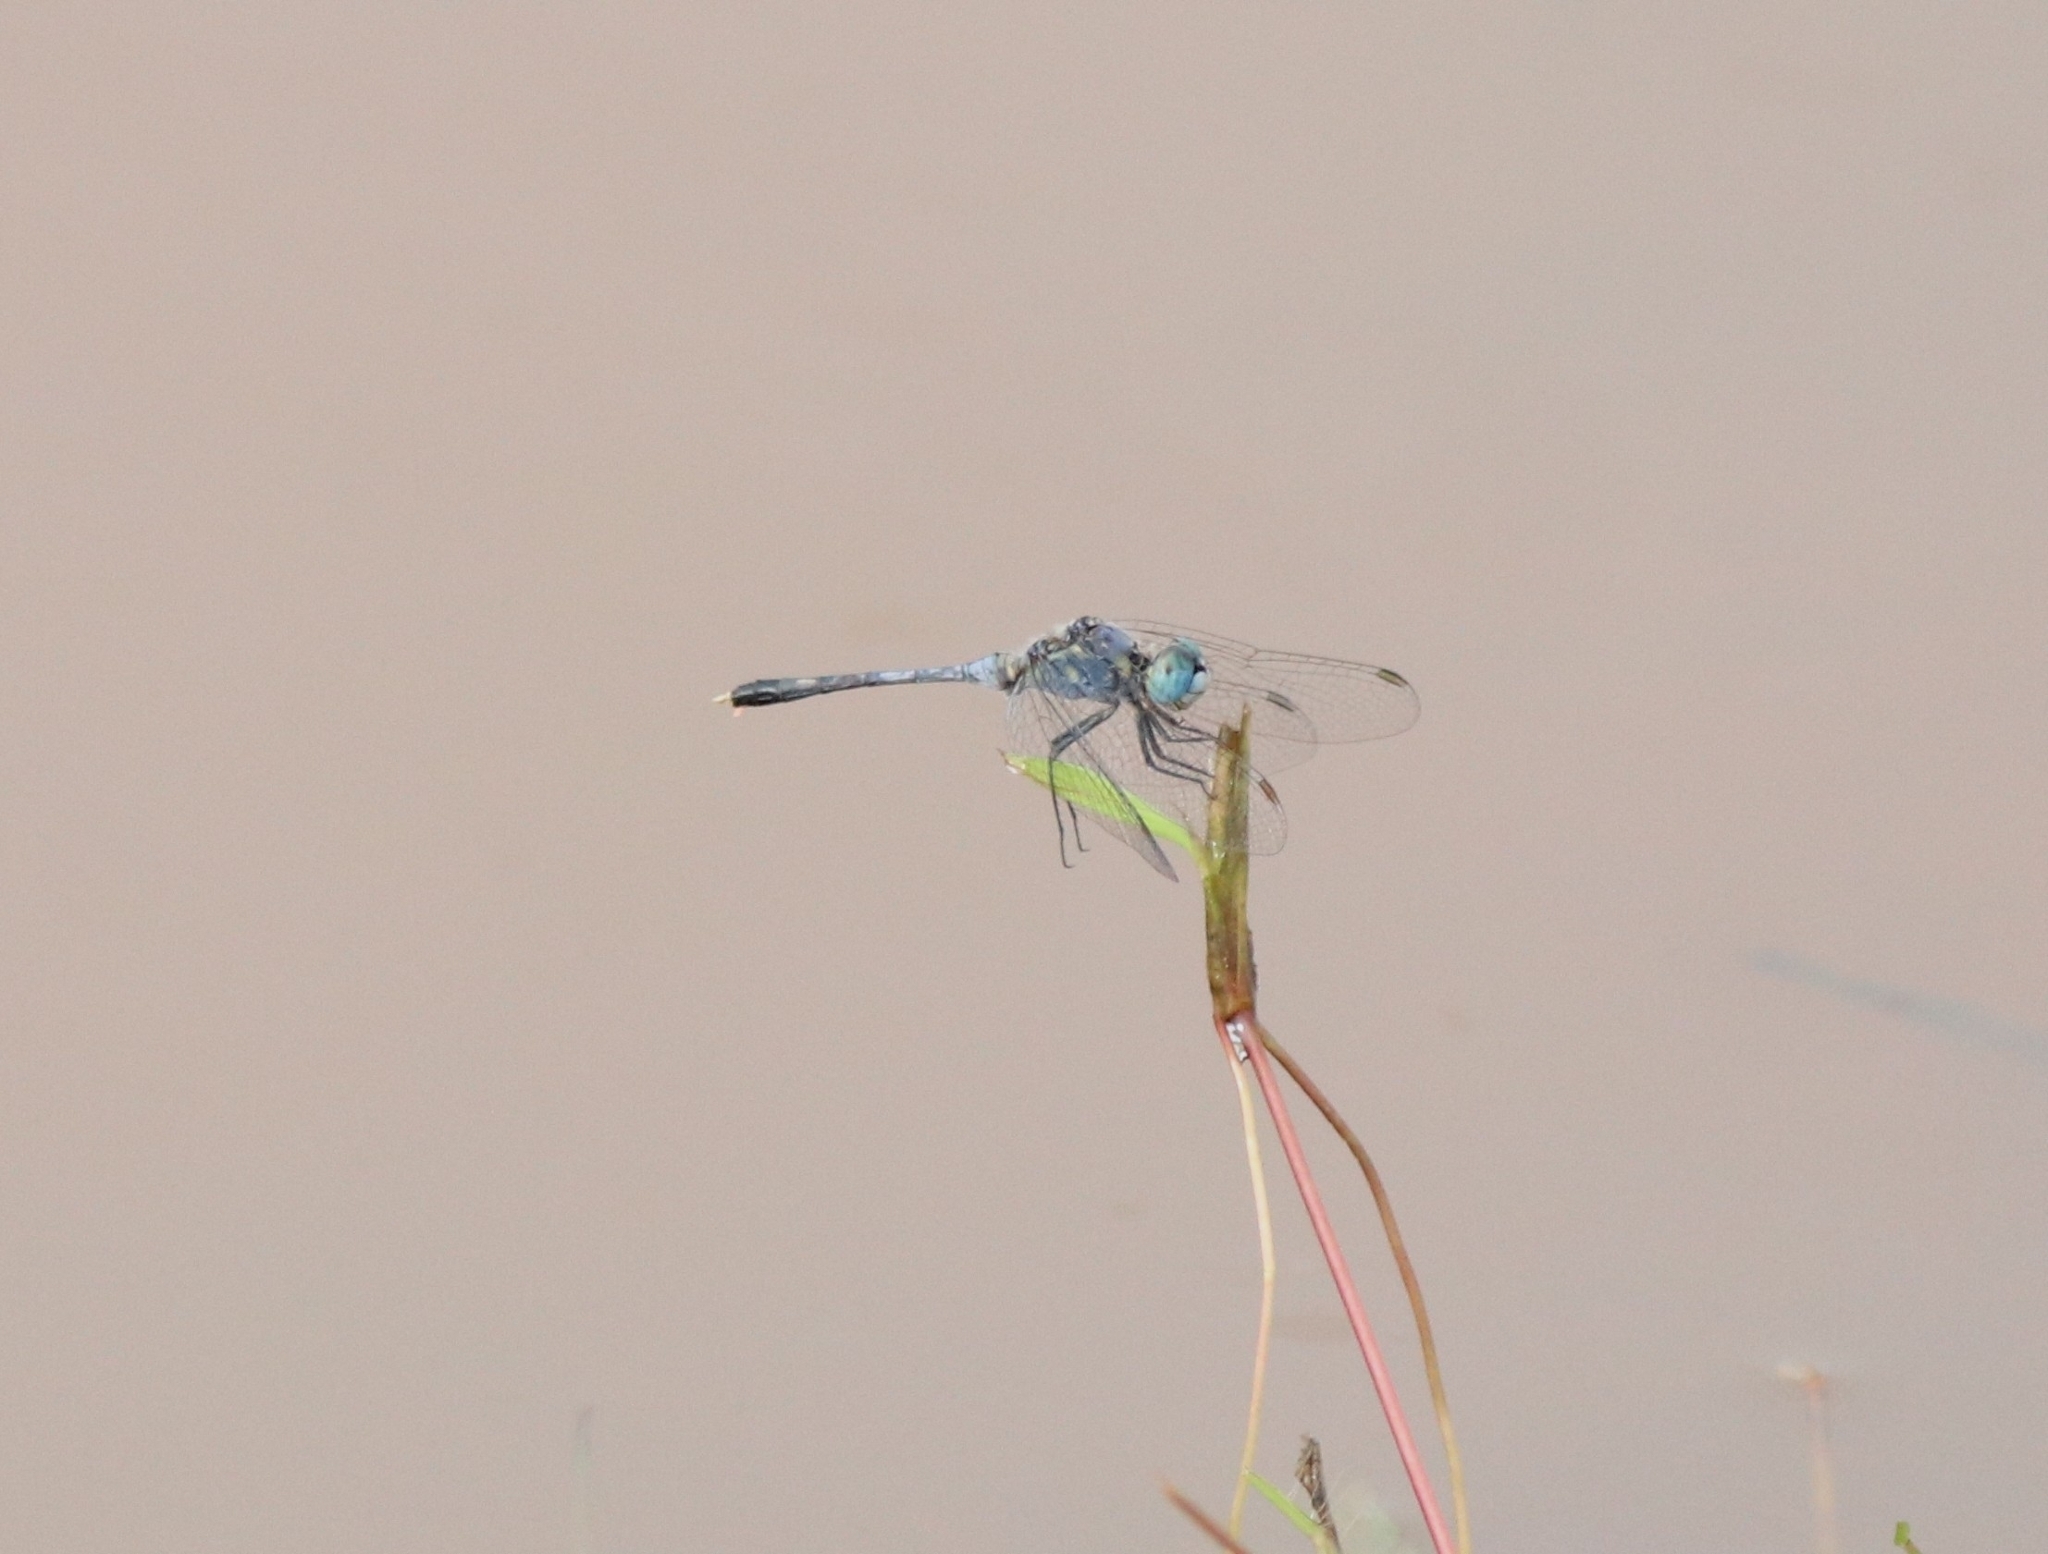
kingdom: Animalia
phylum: Arthropoda
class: Insecta
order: Odonata
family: Libellulidae
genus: Diplacodes
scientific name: Diplacodes trivialis
